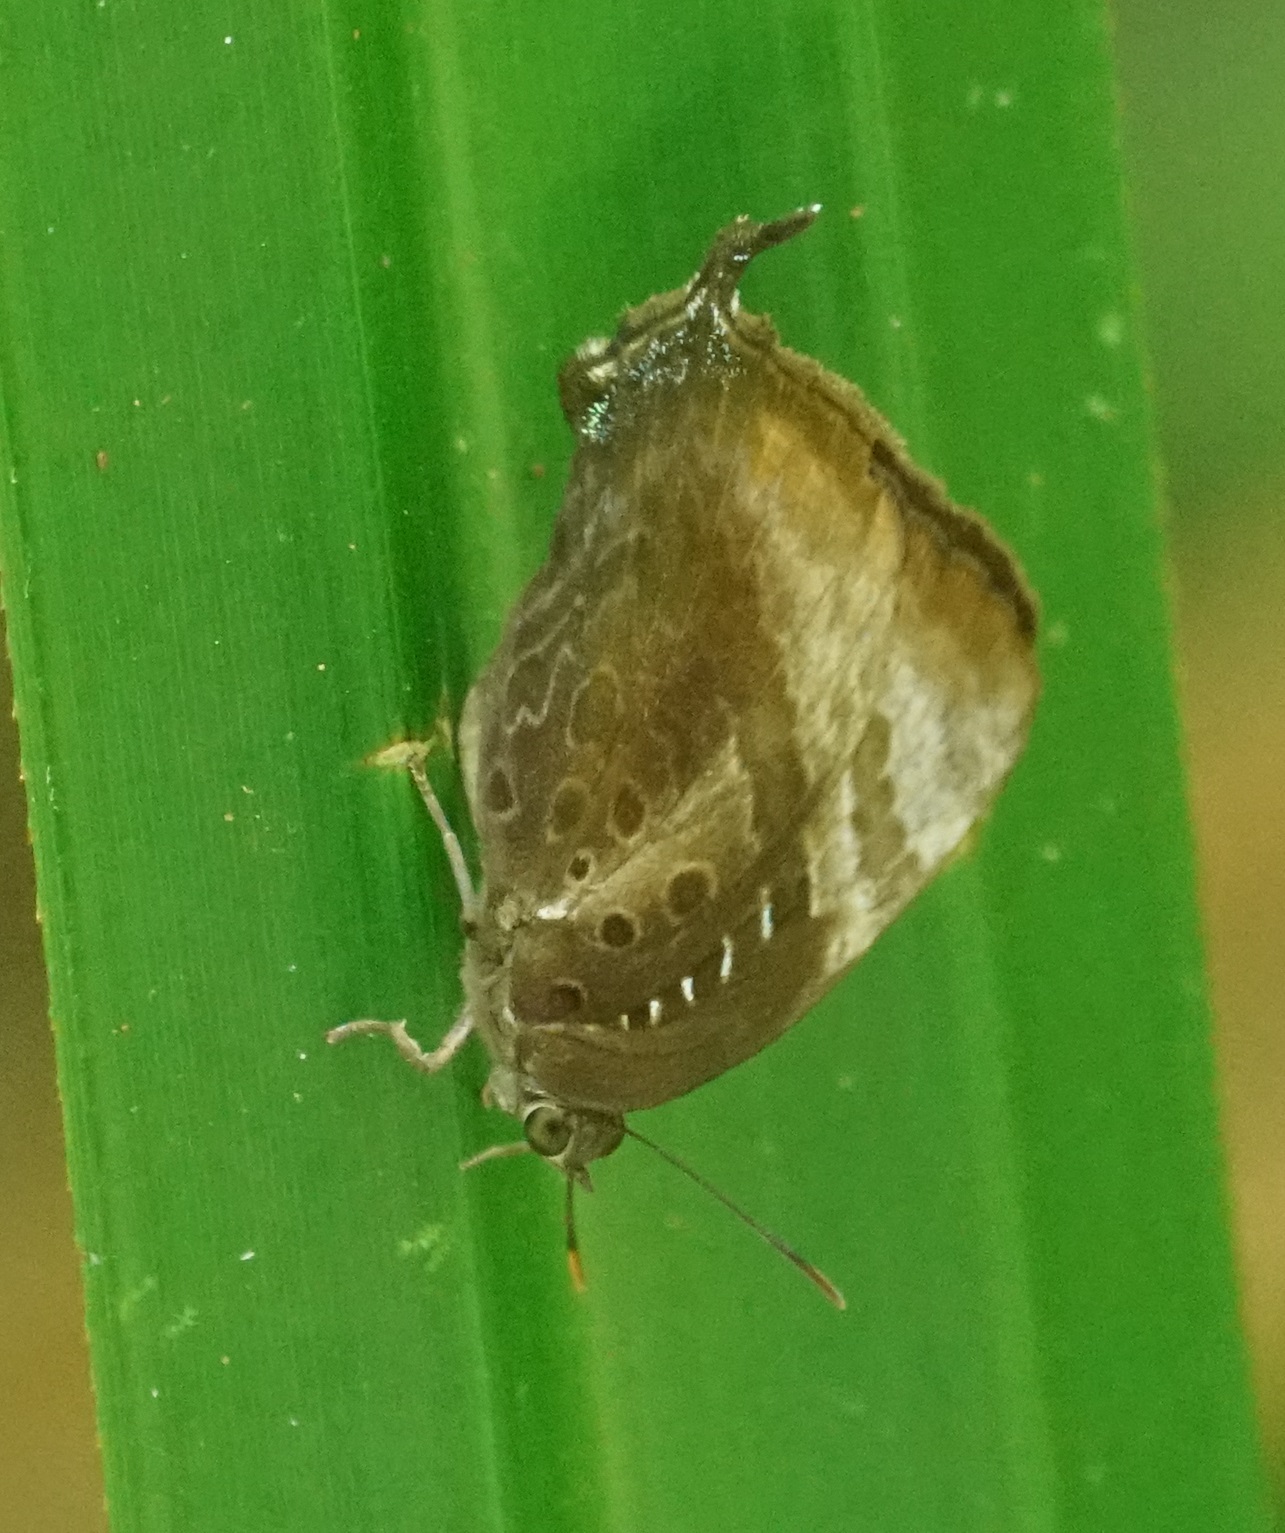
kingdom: Animalia
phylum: Arthropoda
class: Insecta
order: Lepidoptera
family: Lycaenidae
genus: Arhopala
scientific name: Arhopala micale
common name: Shining oak-blue
